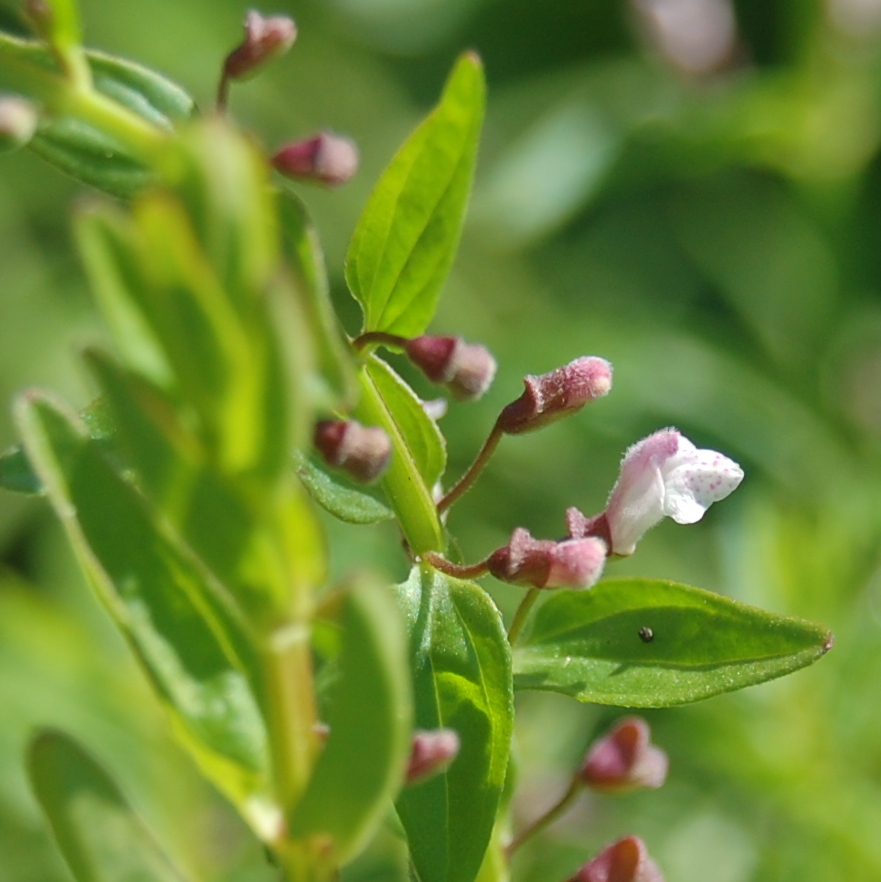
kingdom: Plantae
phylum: Tracheophyta
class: Magnoliopsida
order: Lamiales
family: Lamiaceae
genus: Scutellaria
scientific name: Scutellaria racemosa
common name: South american skullcap
